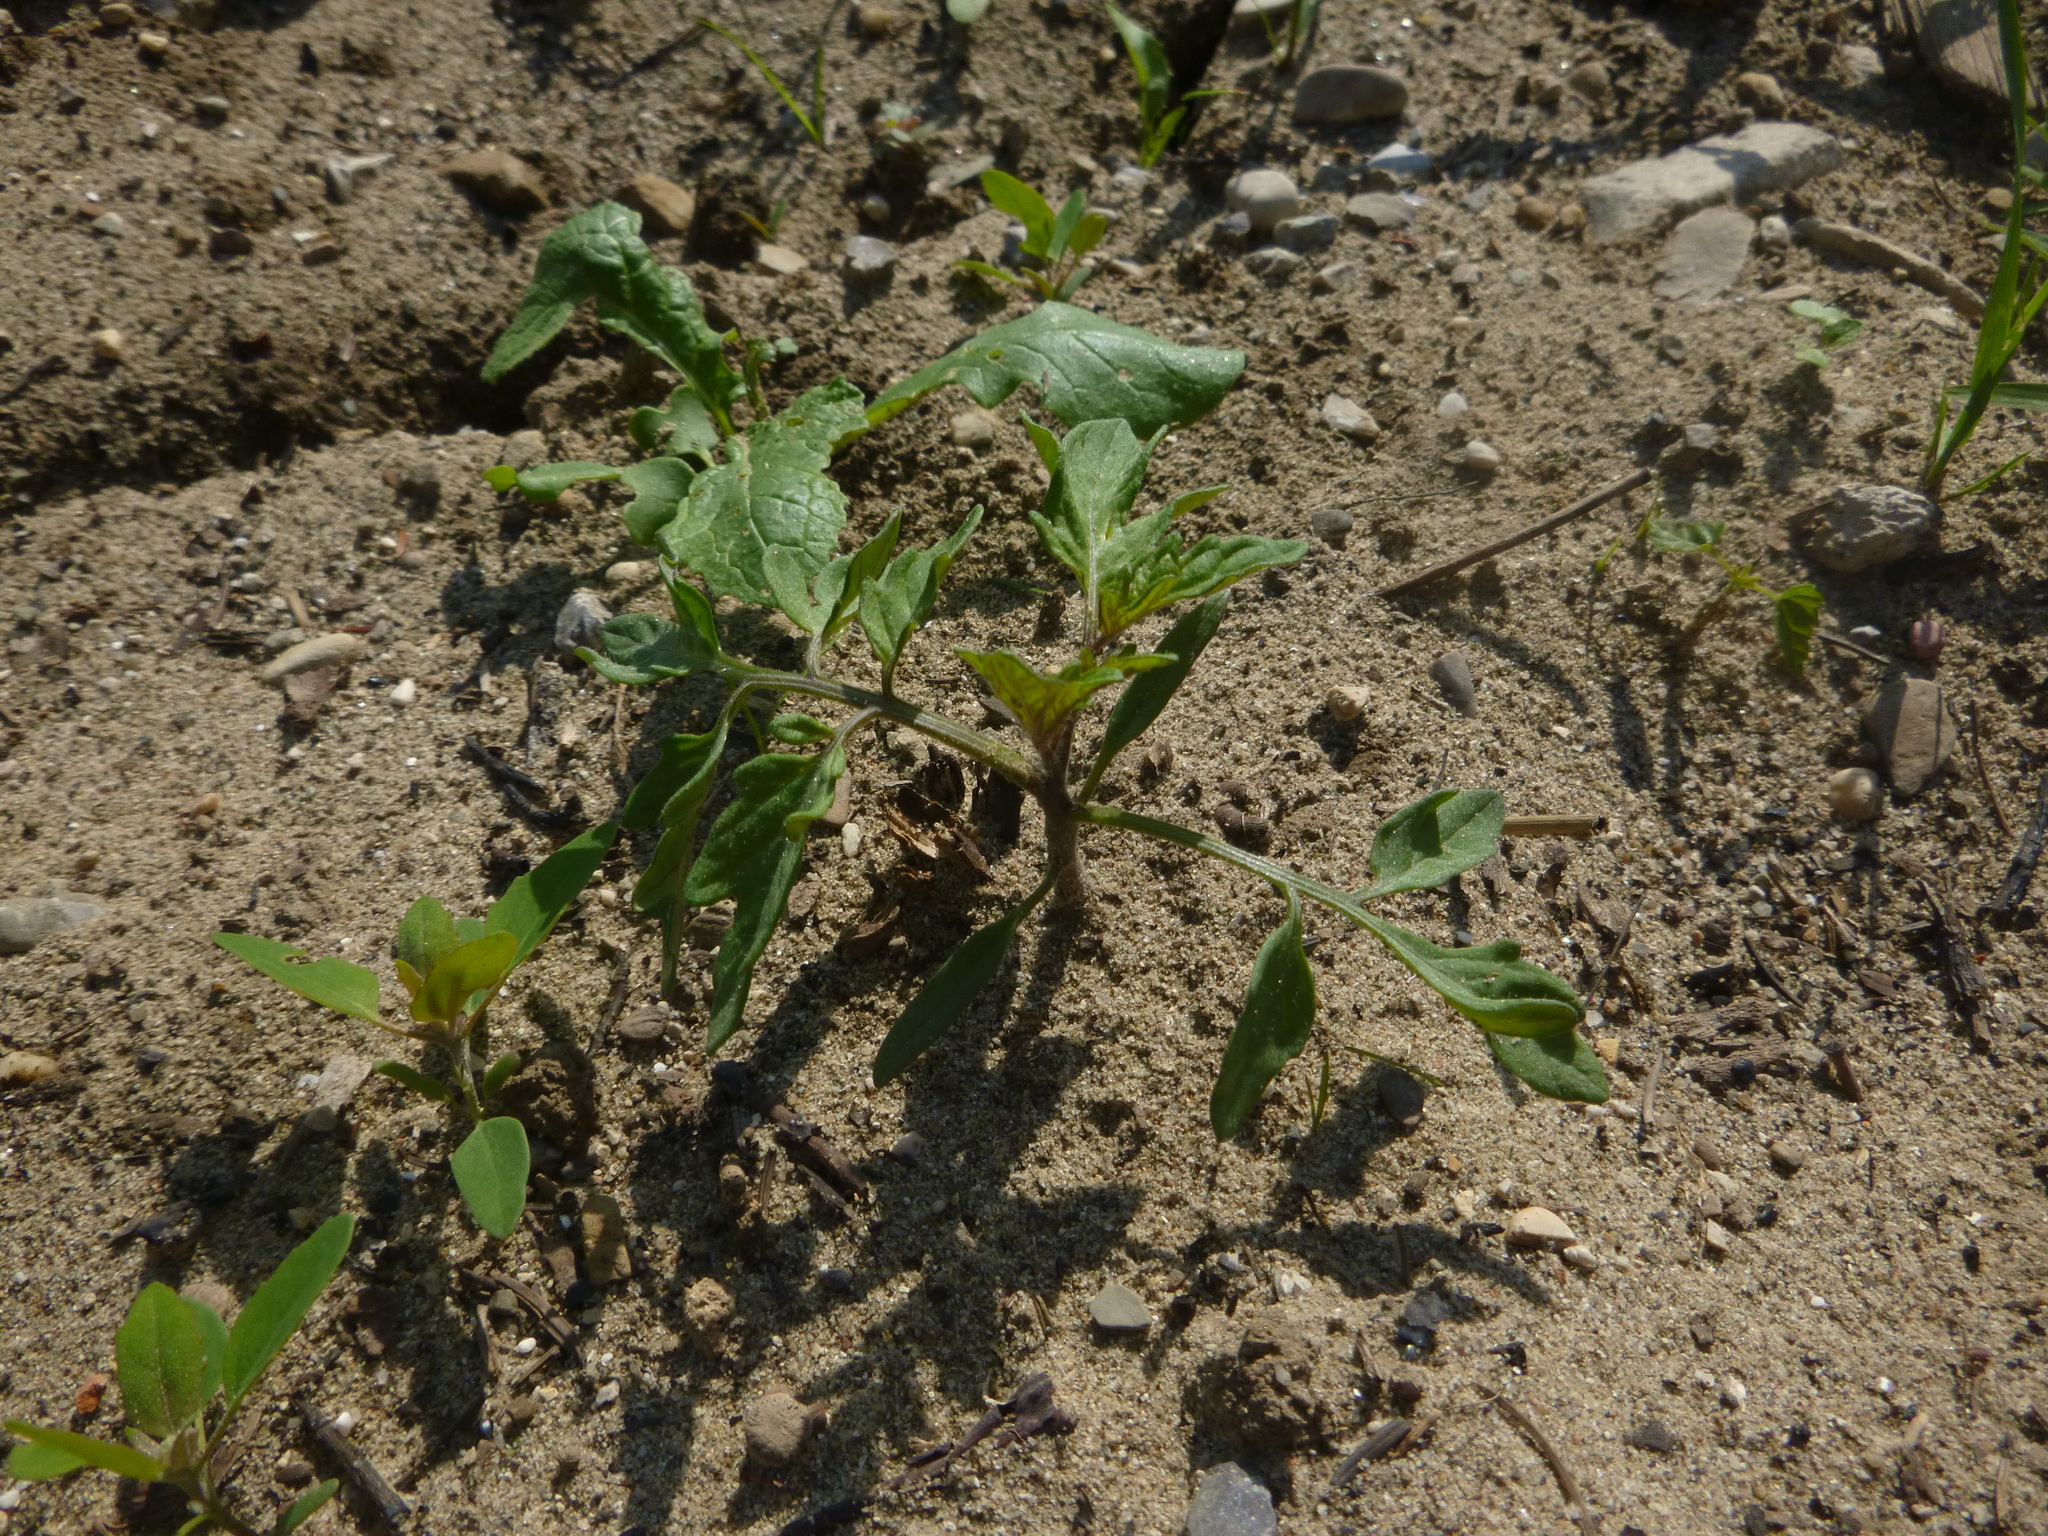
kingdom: Plantae
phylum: Tracheophyta
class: Magnoliopsida
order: Solanales
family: Solanaceae
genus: Solanum
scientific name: Solanum lycopersicum
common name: Garden tomato
